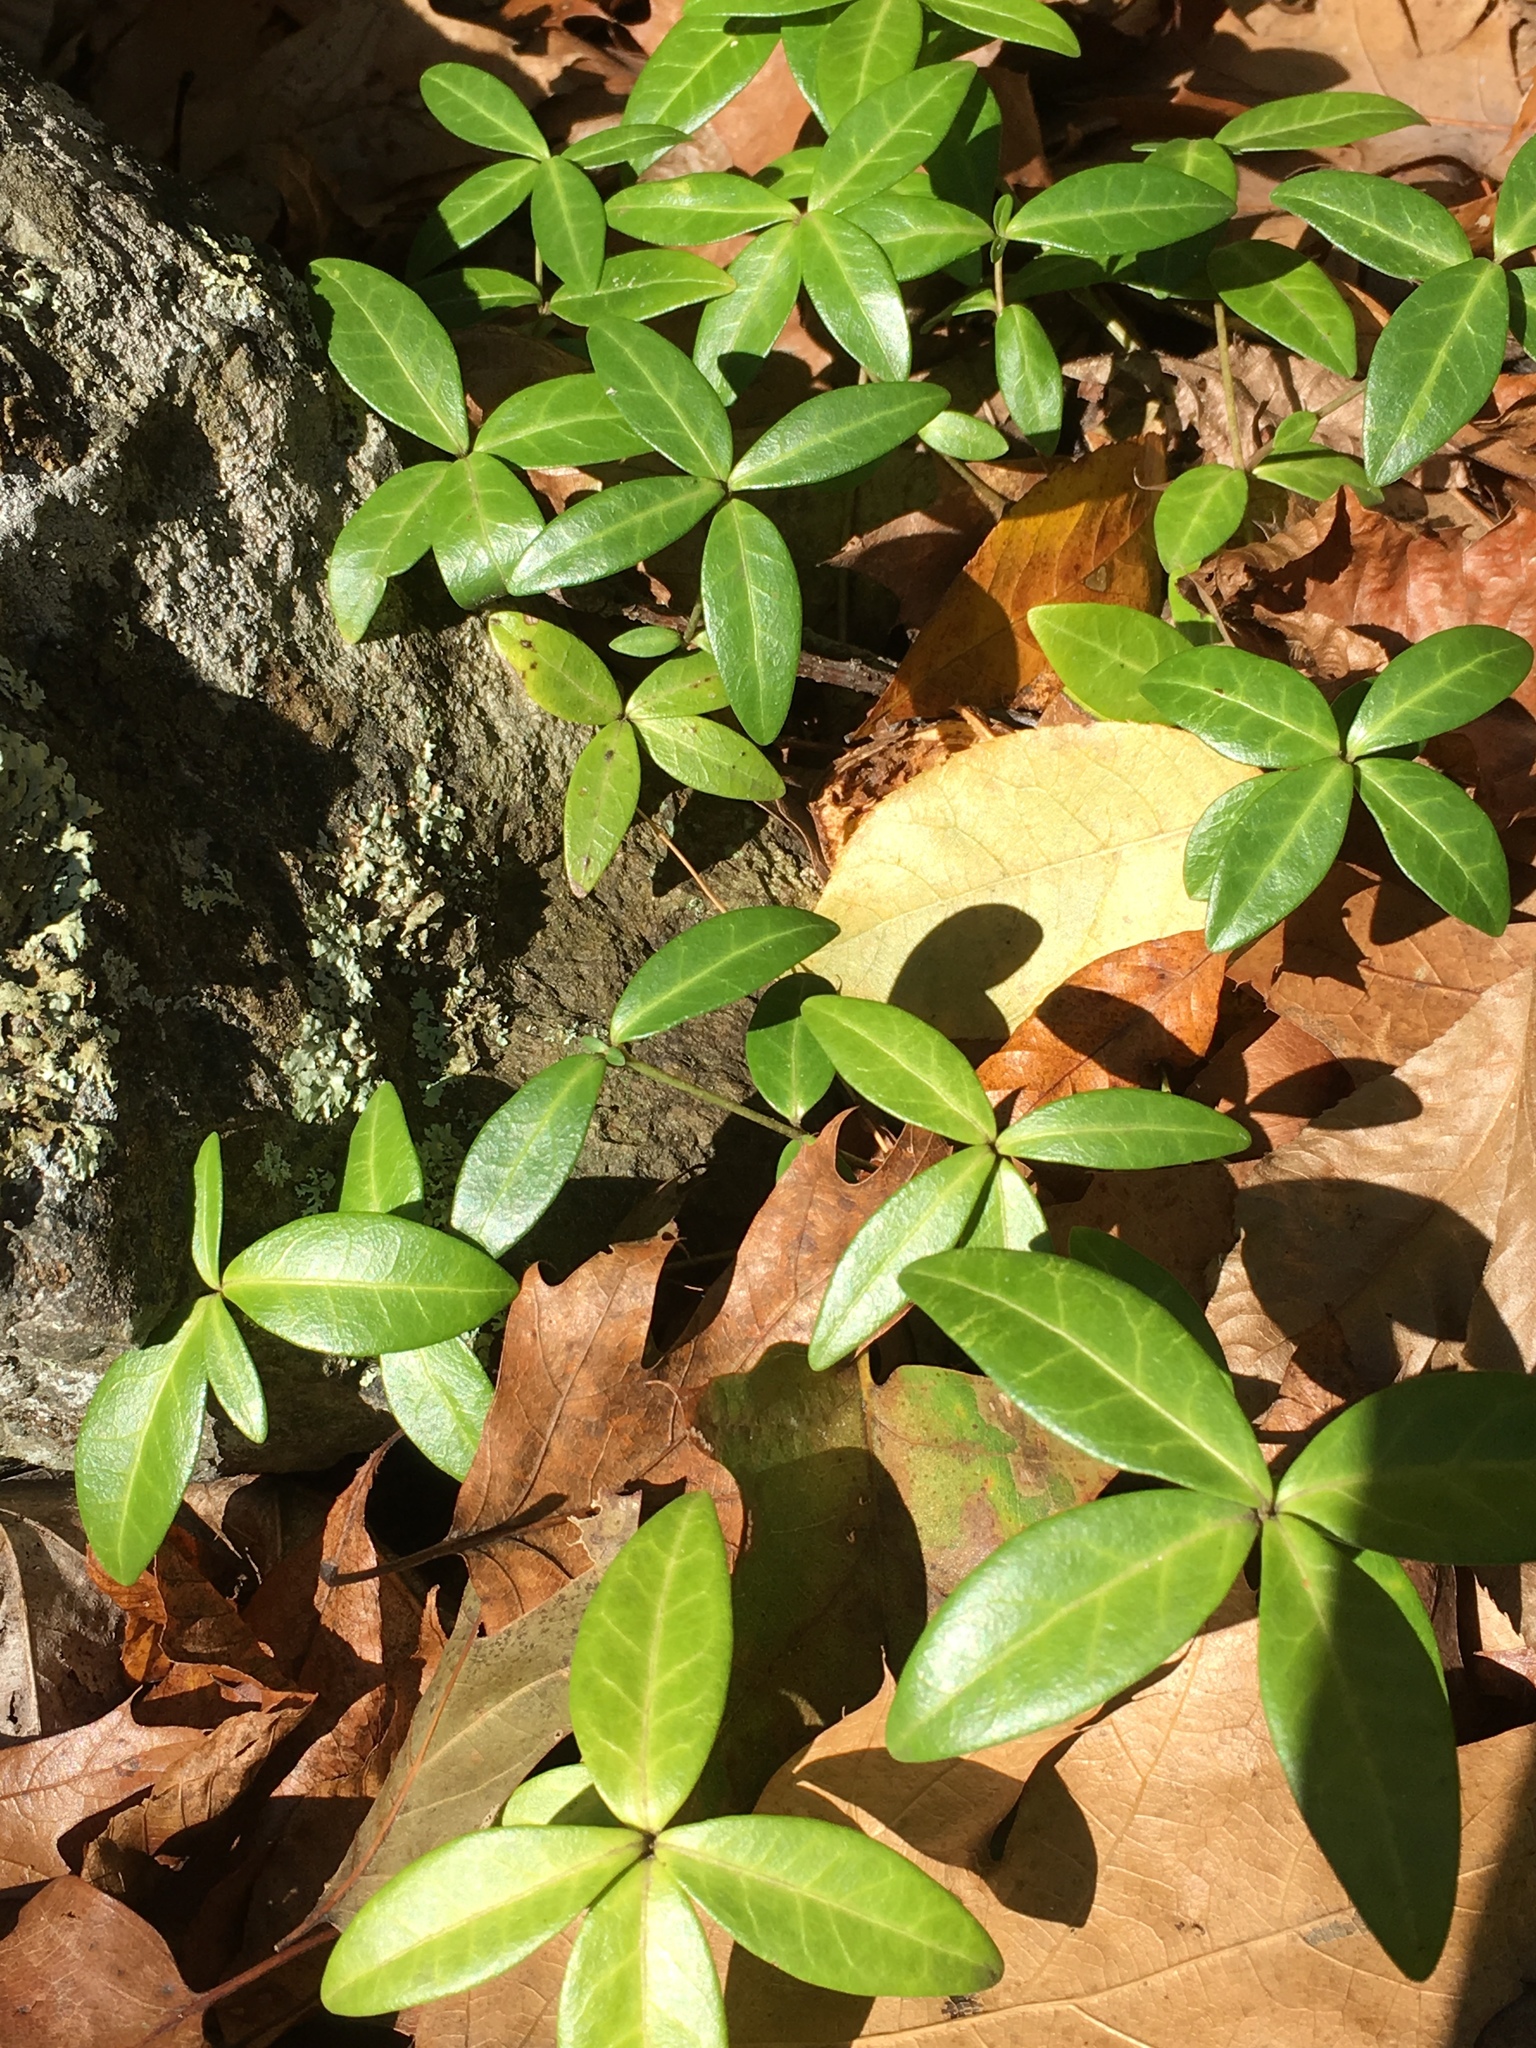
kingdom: Plantae
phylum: Tracheophyta
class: Magnoliopsida
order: Gentianales
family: Apocynaceae
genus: Vinca
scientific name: Vinca minor
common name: Lesser periwinkle
